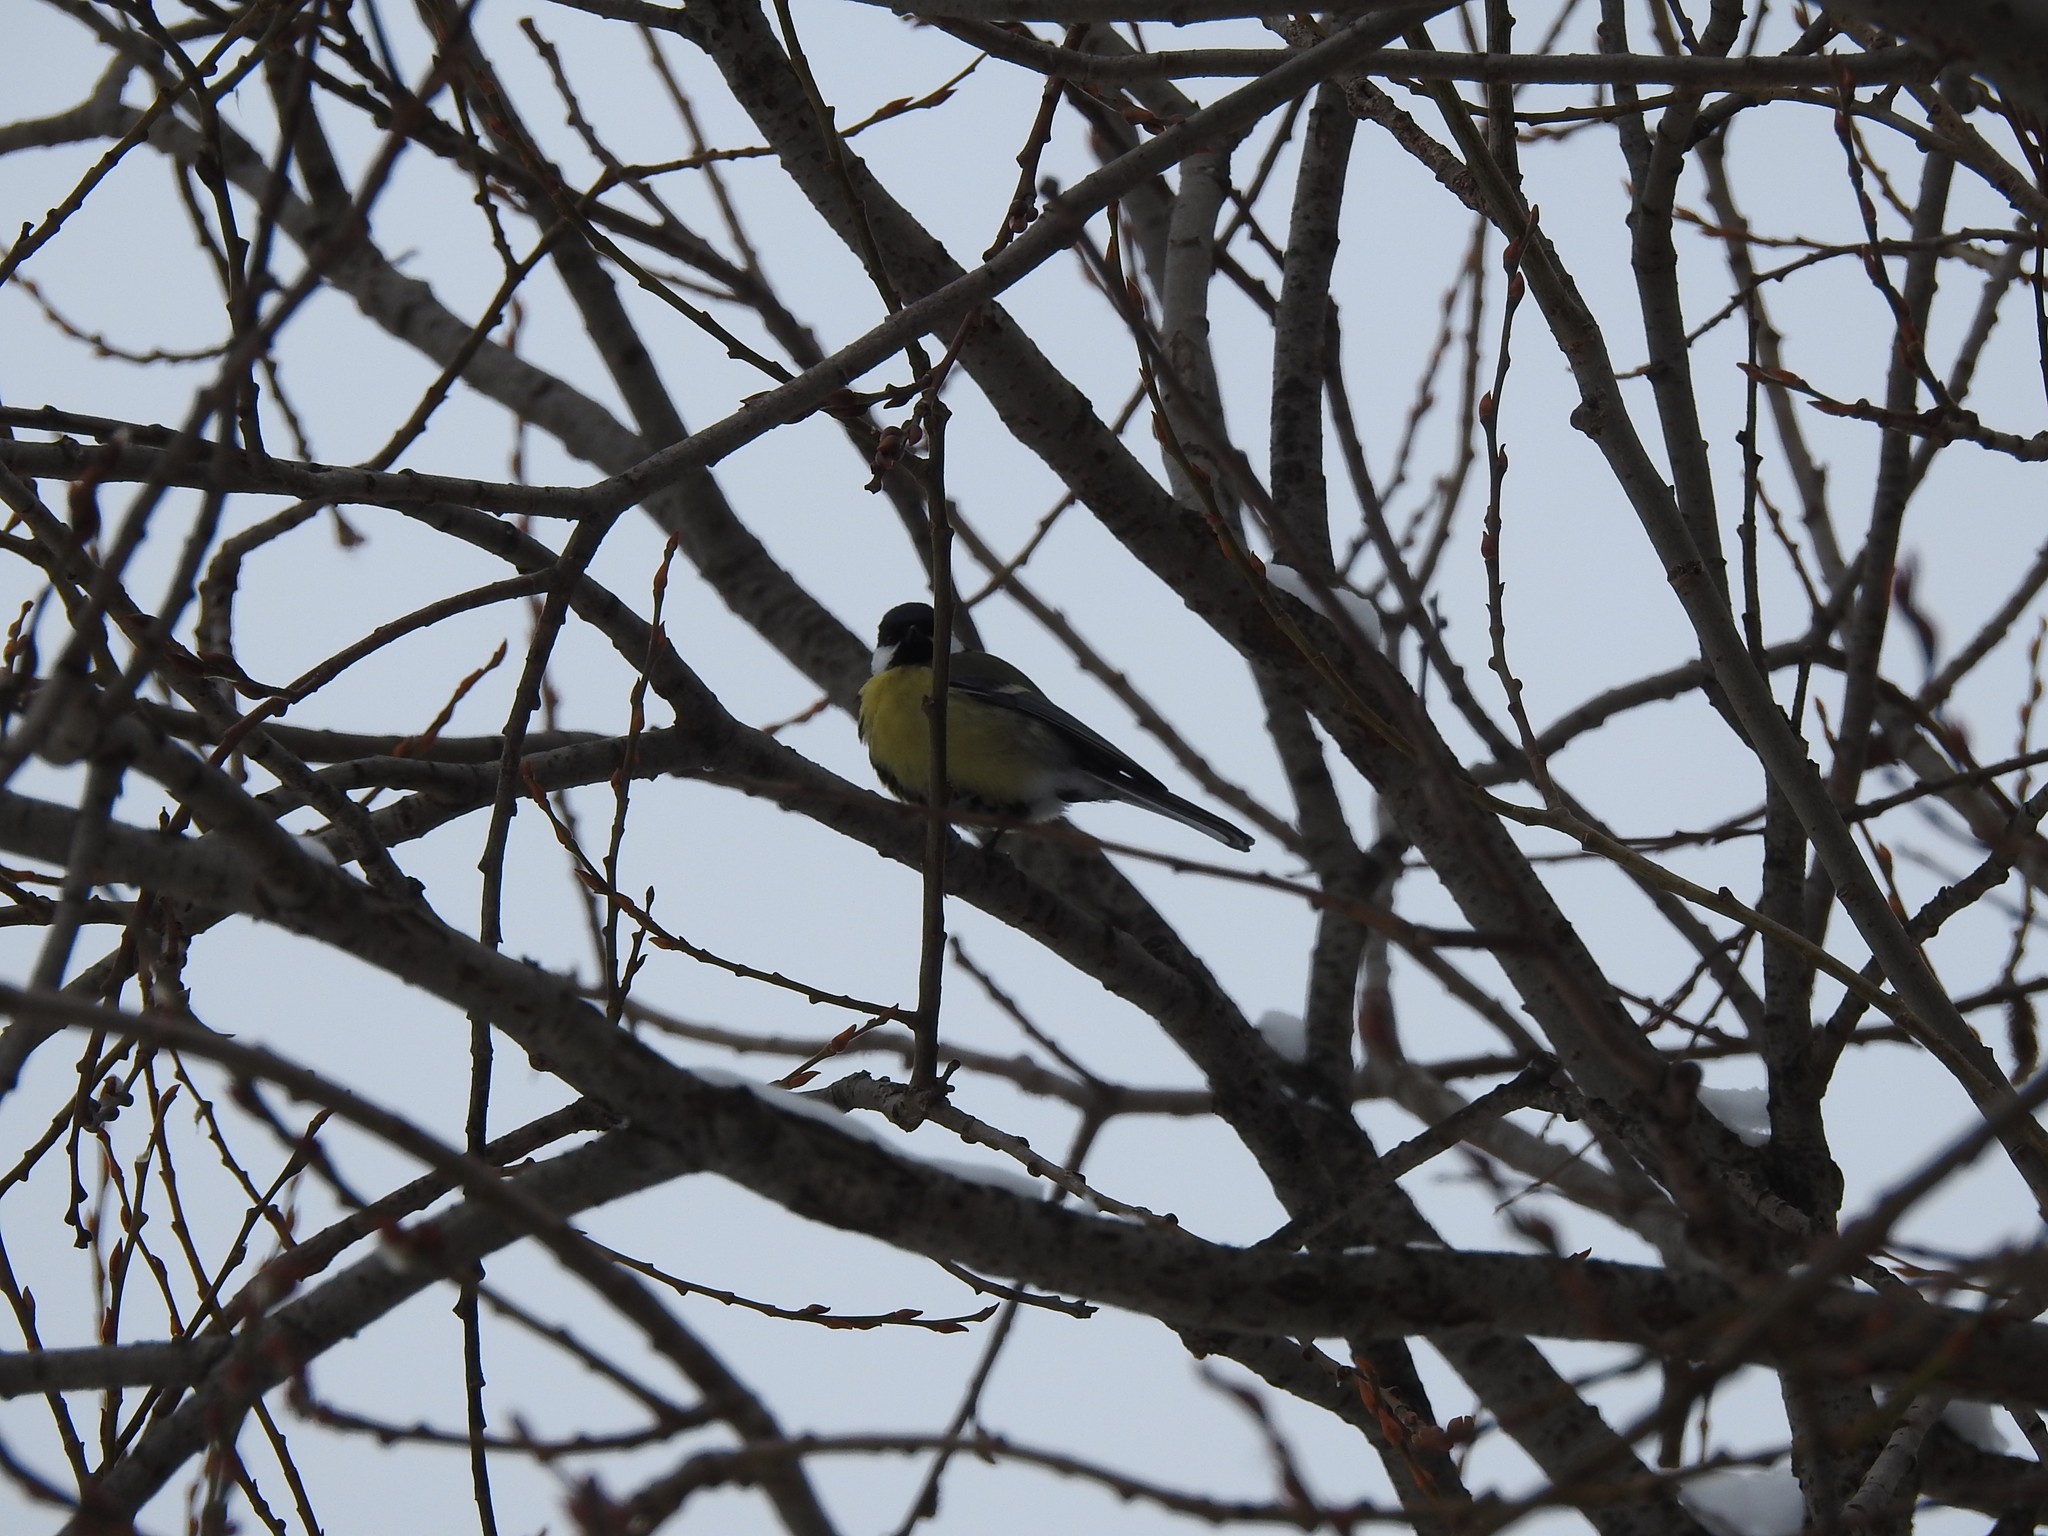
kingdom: Animalia
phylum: Chordata
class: Aves
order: Passeriformes
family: Paridae
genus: Parus
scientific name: Parus major
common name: Great tit
